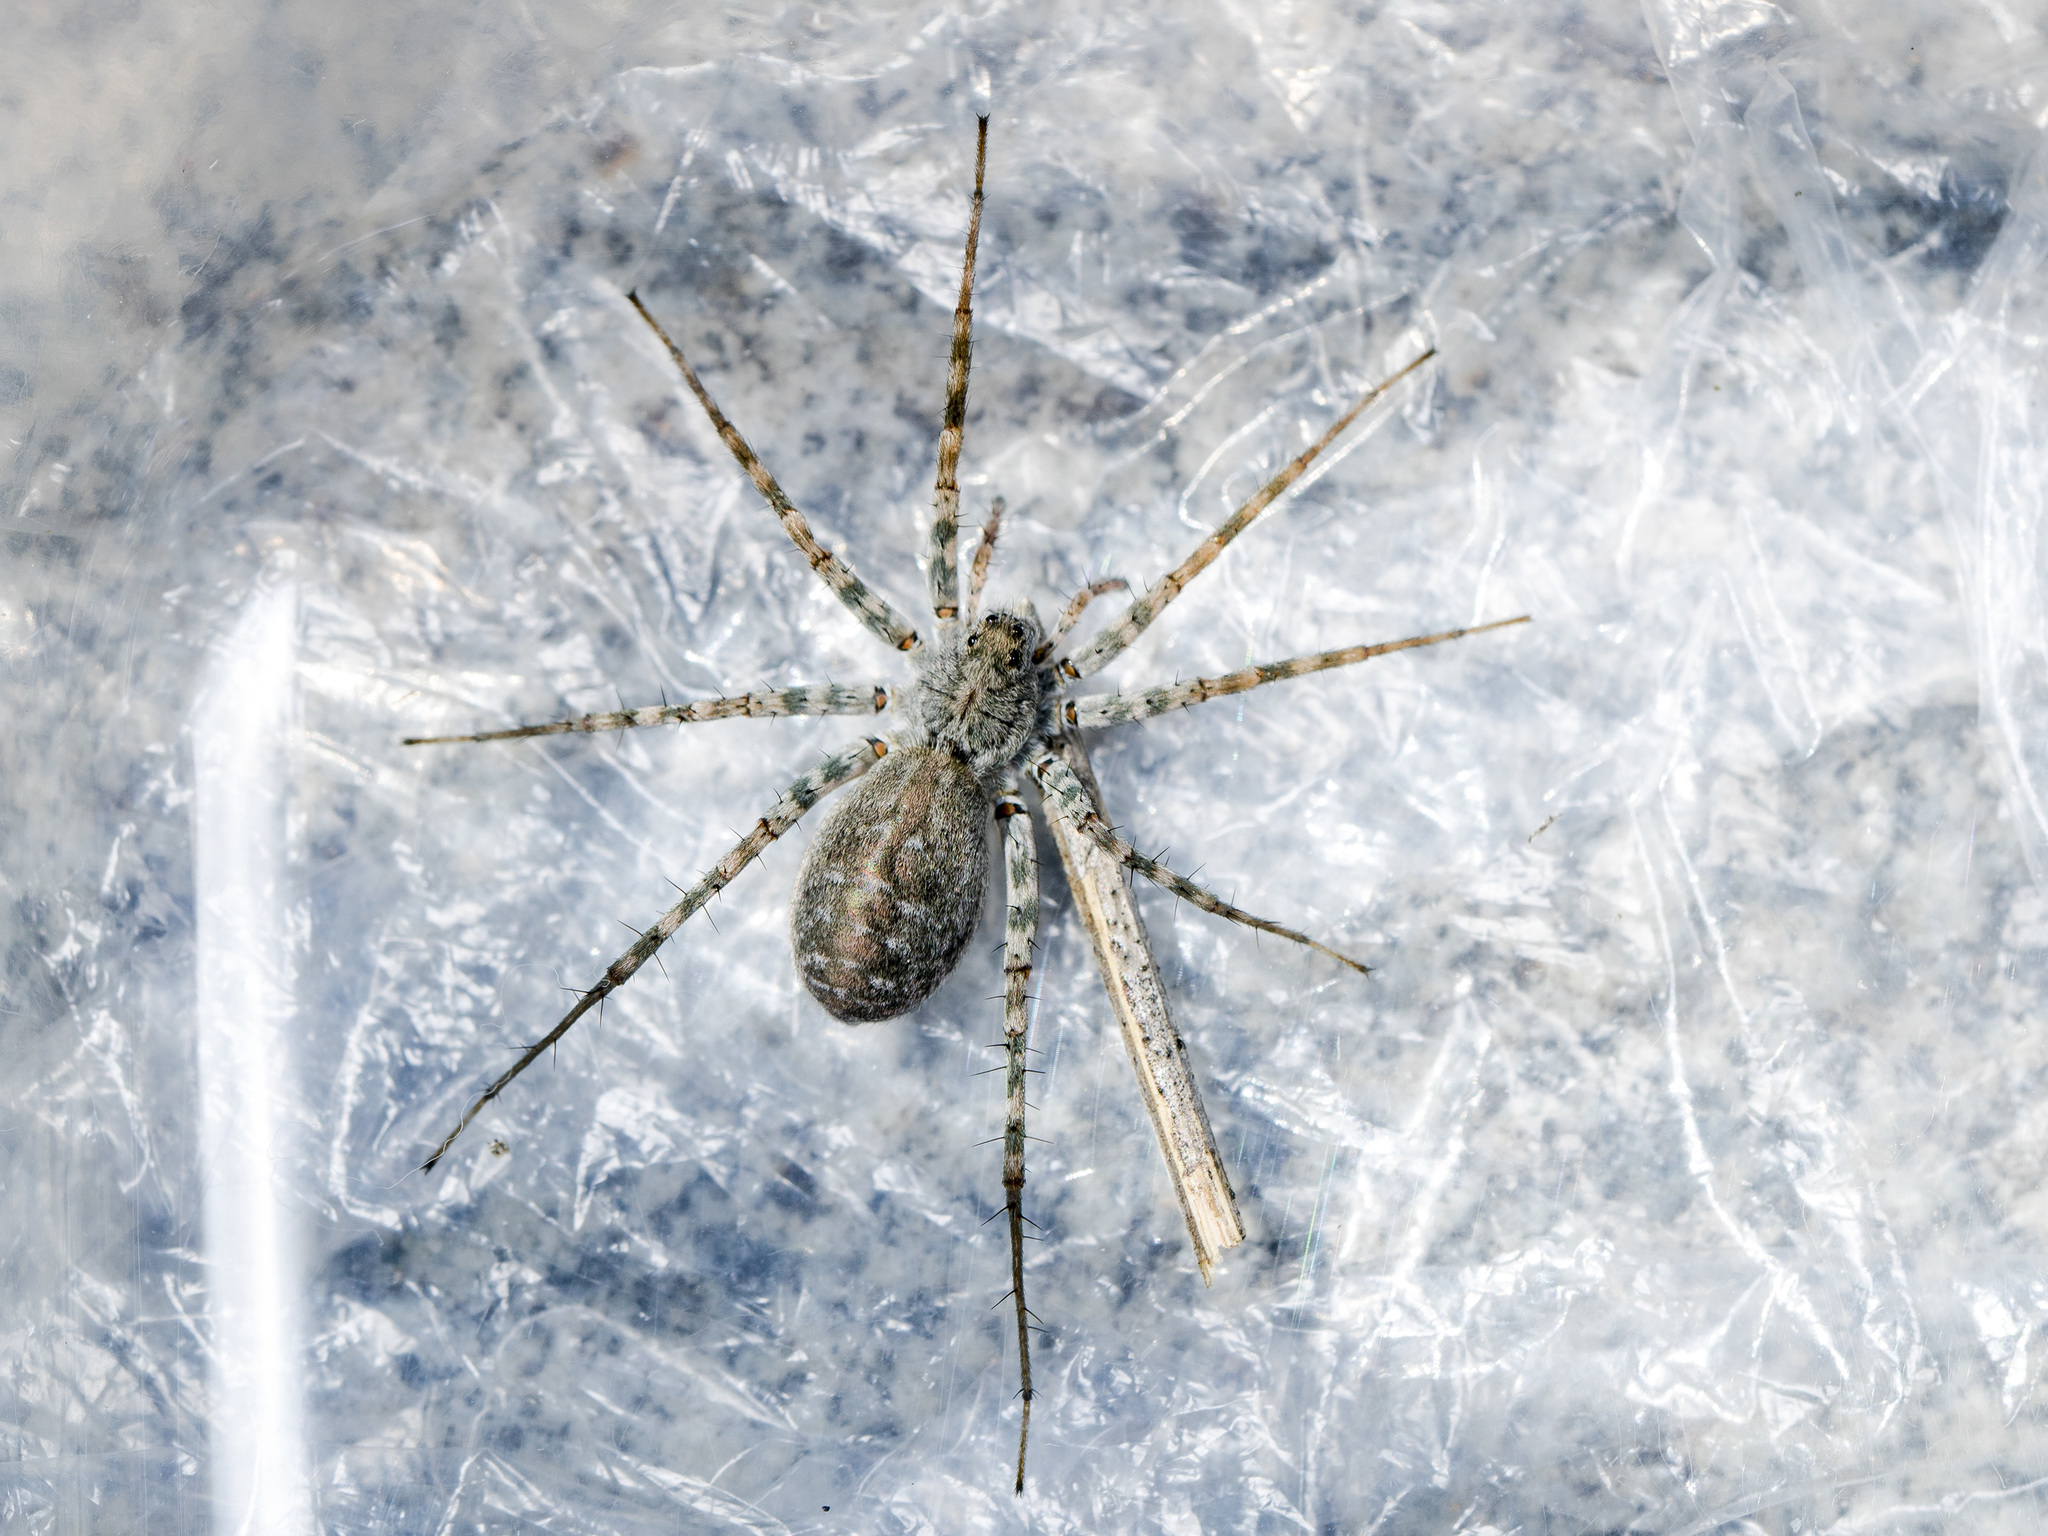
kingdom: Animalia
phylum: Arthropoda
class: Arachnida
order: Araneae
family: Lycosidae
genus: Pardosa
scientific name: Pardosa falcata
